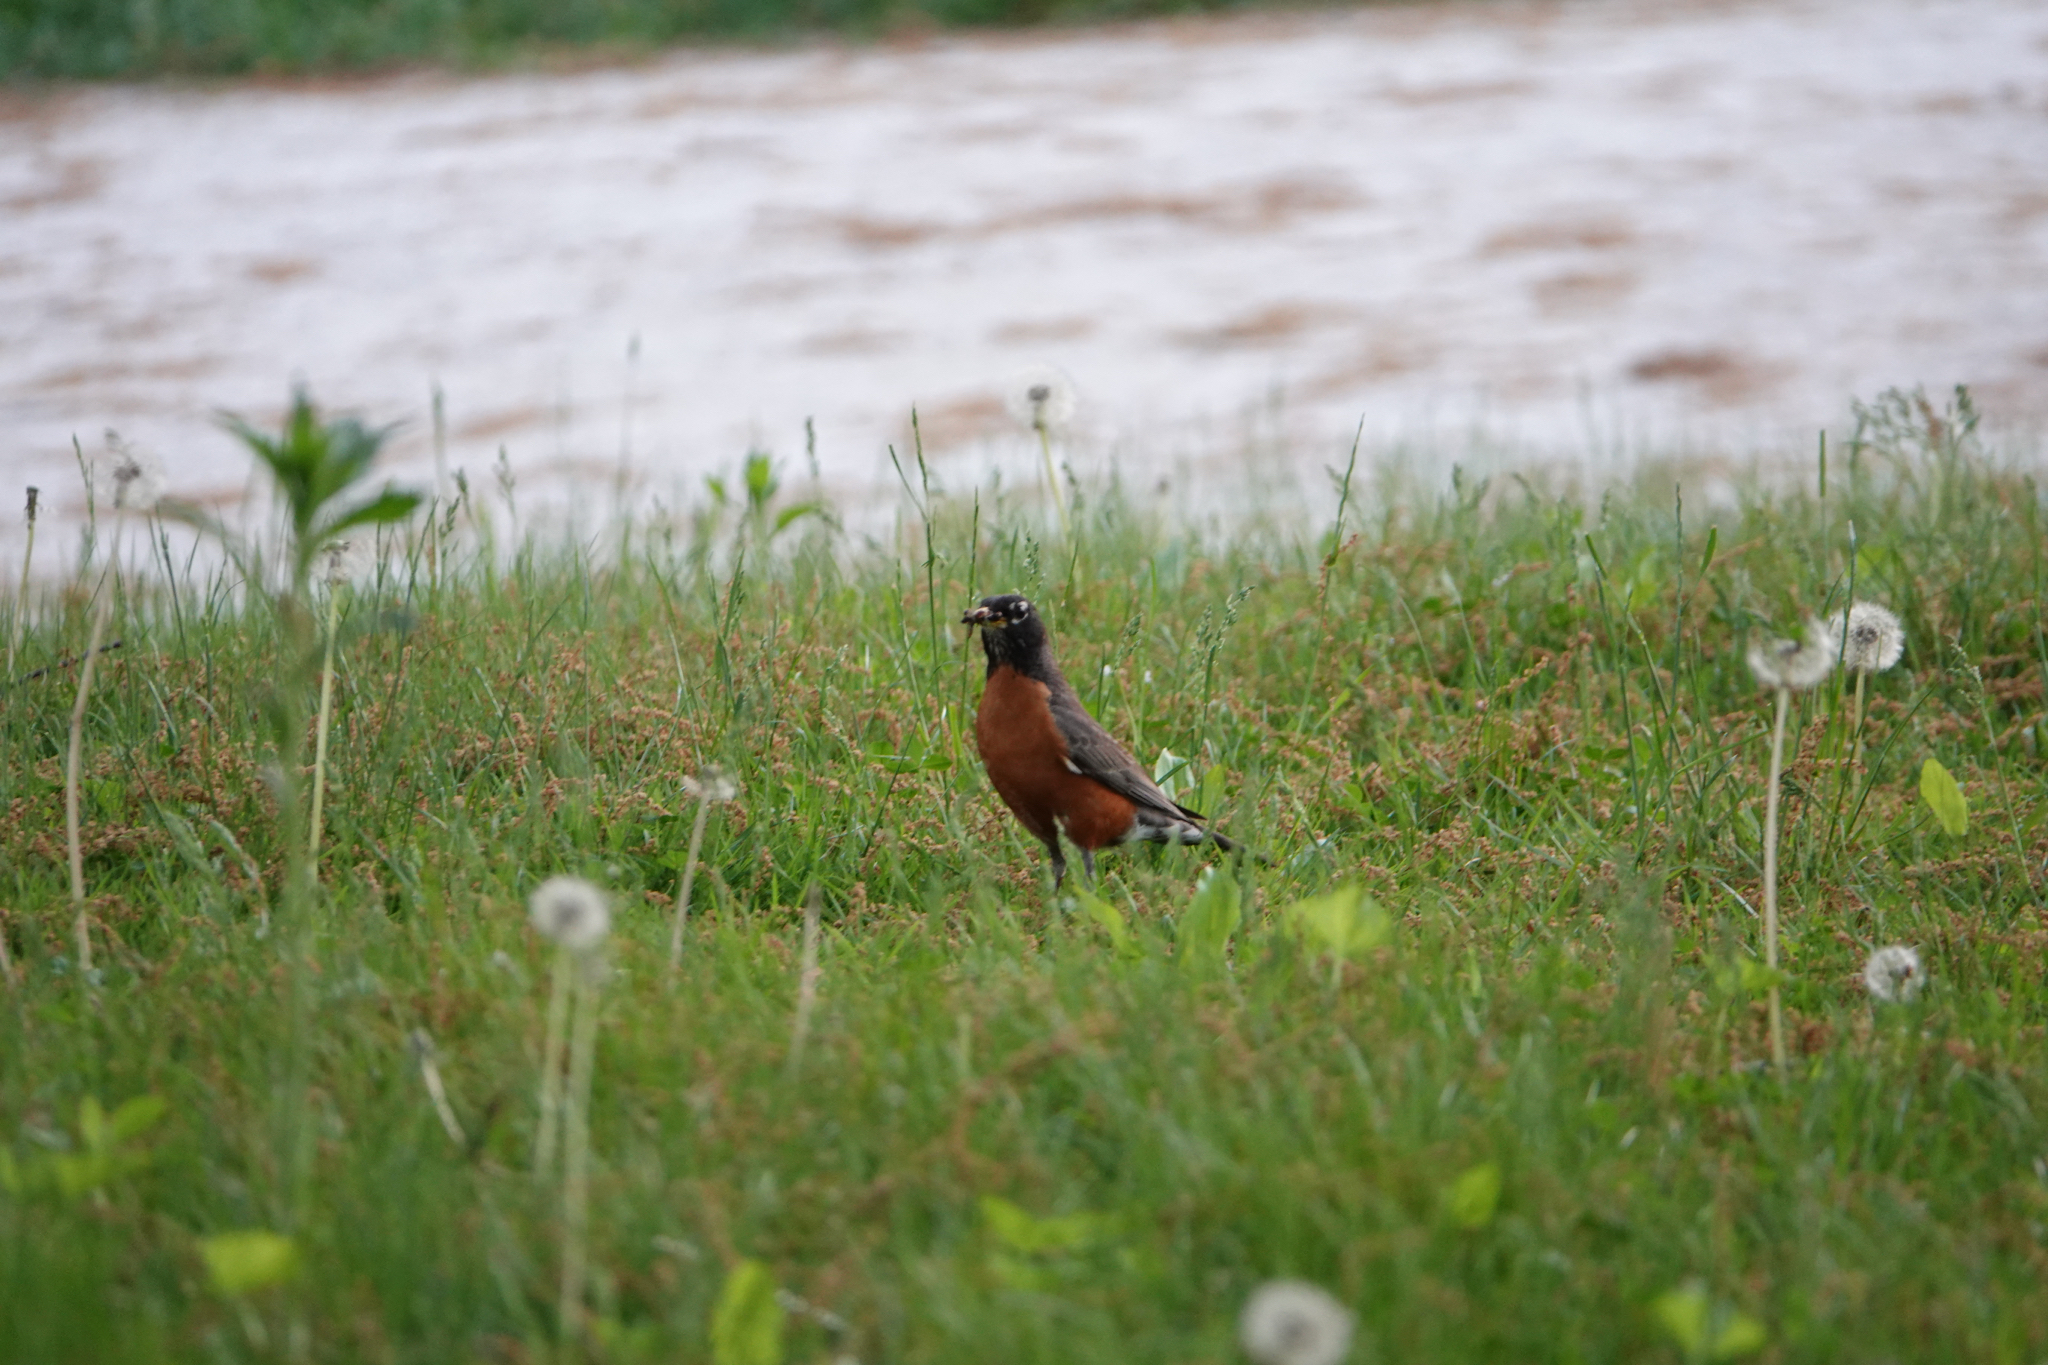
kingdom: Animalia
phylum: Chordata
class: Aves
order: Passeriformes
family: Turdidae
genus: Turdus
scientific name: Turdus migratorius
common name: American robin
